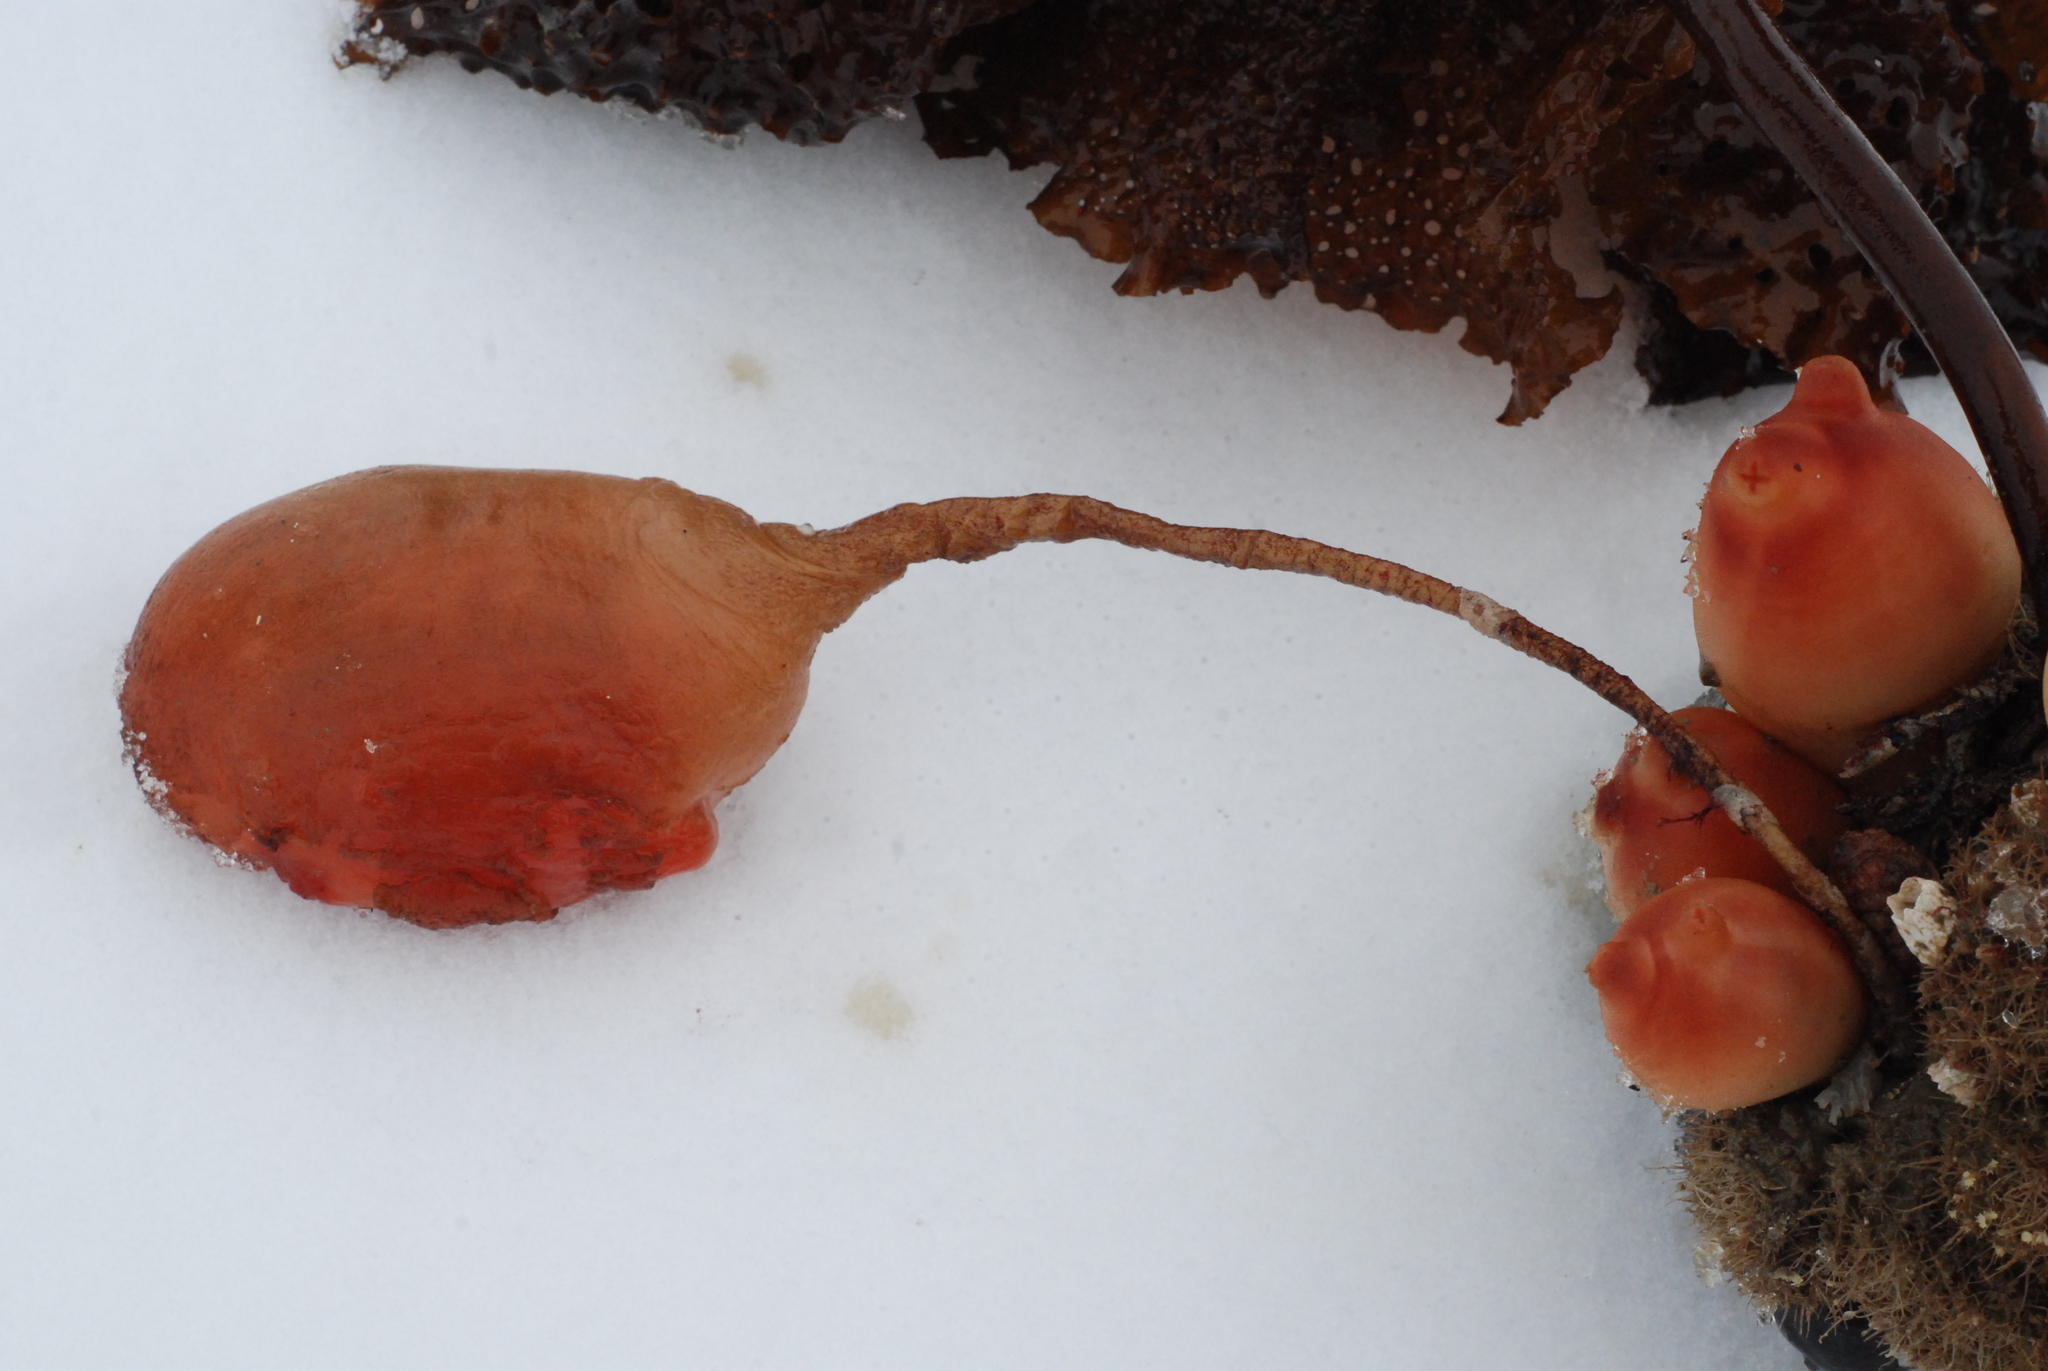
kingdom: Animalia
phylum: Chordata
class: Ascidiacea
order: Stolidobranchia
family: Pyuridae
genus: Boltenia
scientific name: Boltenia ovifera
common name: Stalked sea squirt
